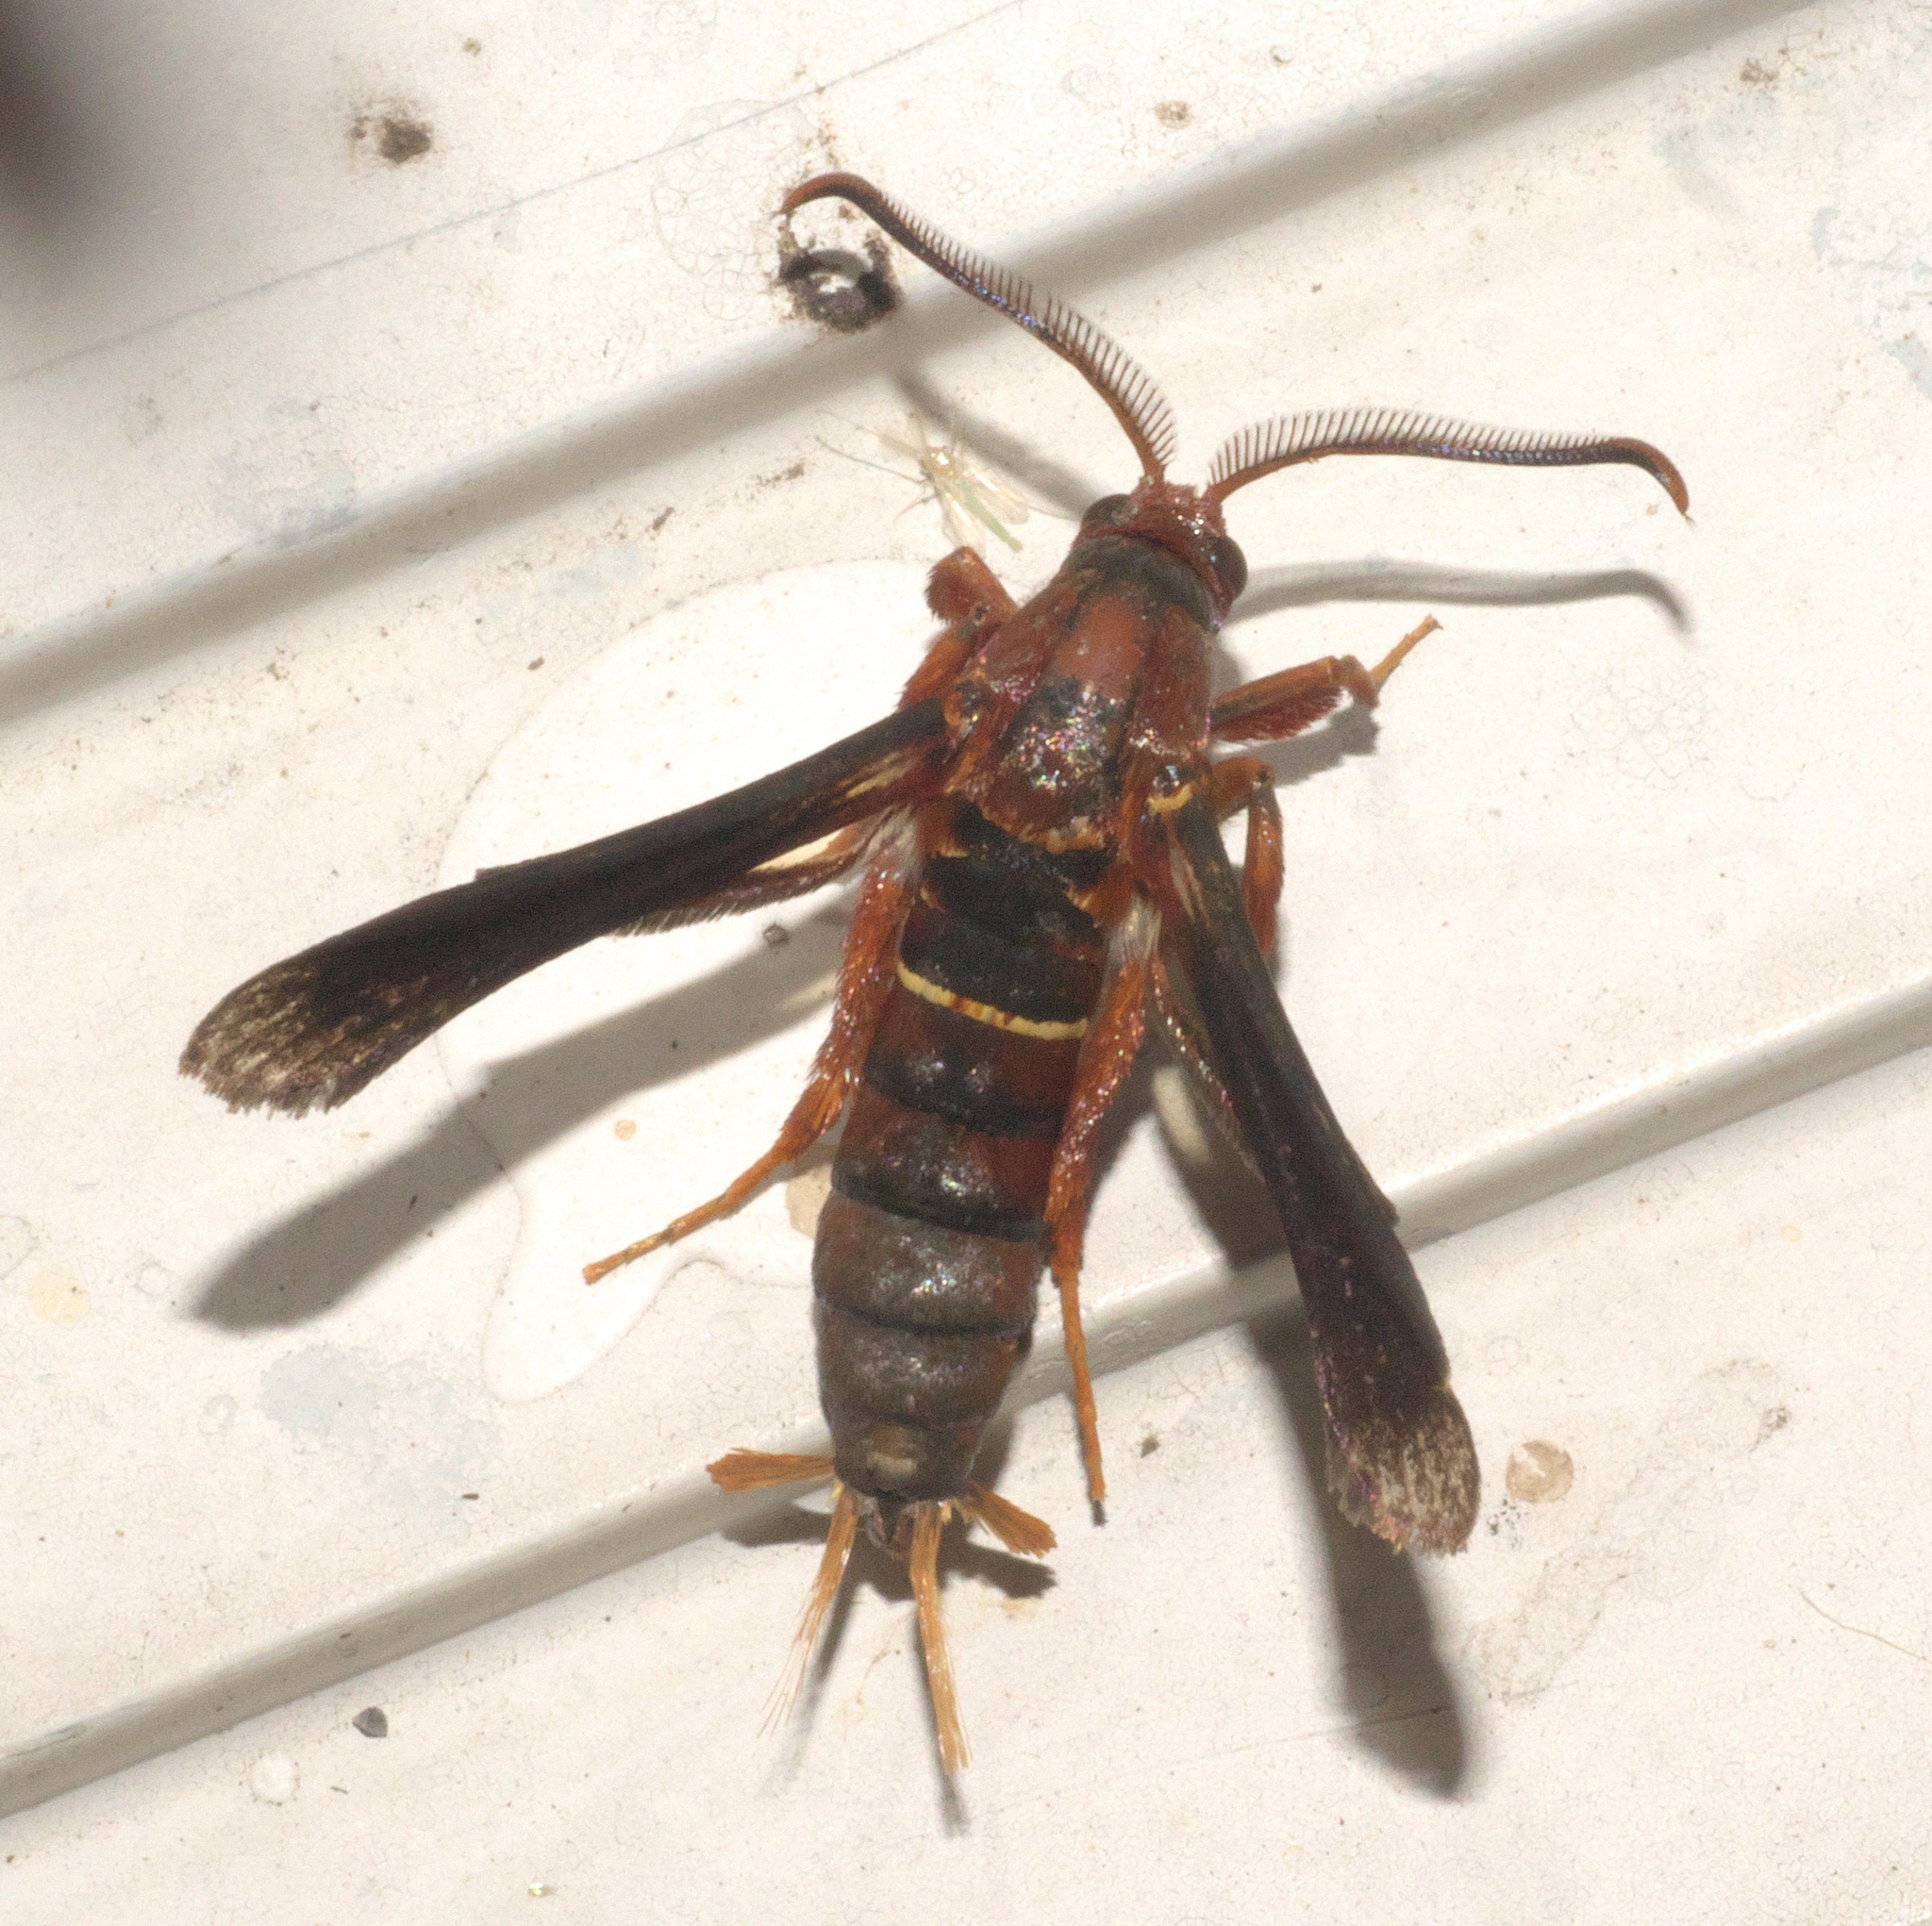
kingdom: Animalia
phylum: Arthropoda
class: Insecta
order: Lepidoptera
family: Sesiidae
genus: Vitacea
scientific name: Vitacea polistiformis
